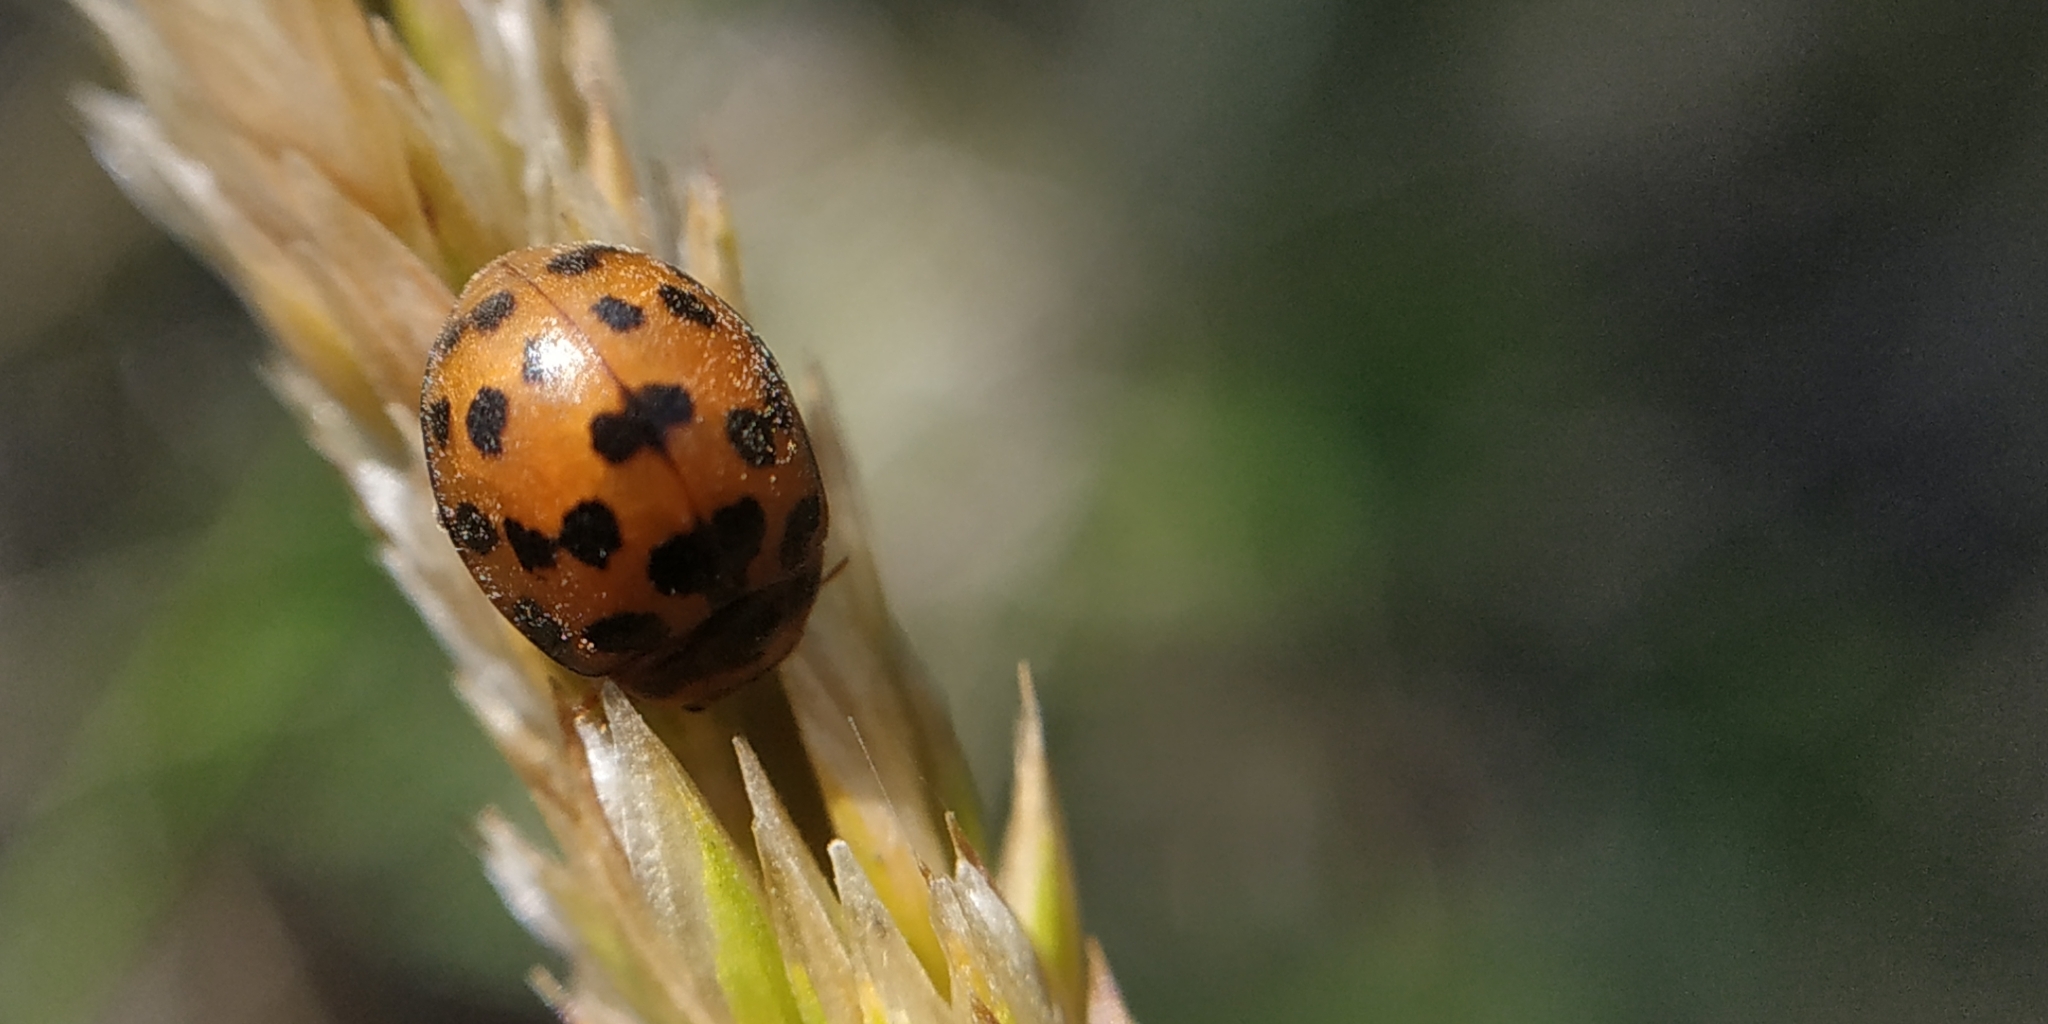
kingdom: Animalia
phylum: Arthropoda
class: Insecta
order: Coleoptera
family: Coccinellidae
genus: Subcoccinella
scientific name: Subcoccinella vigintiquatuorpunctata
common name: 24-spot ladybird
